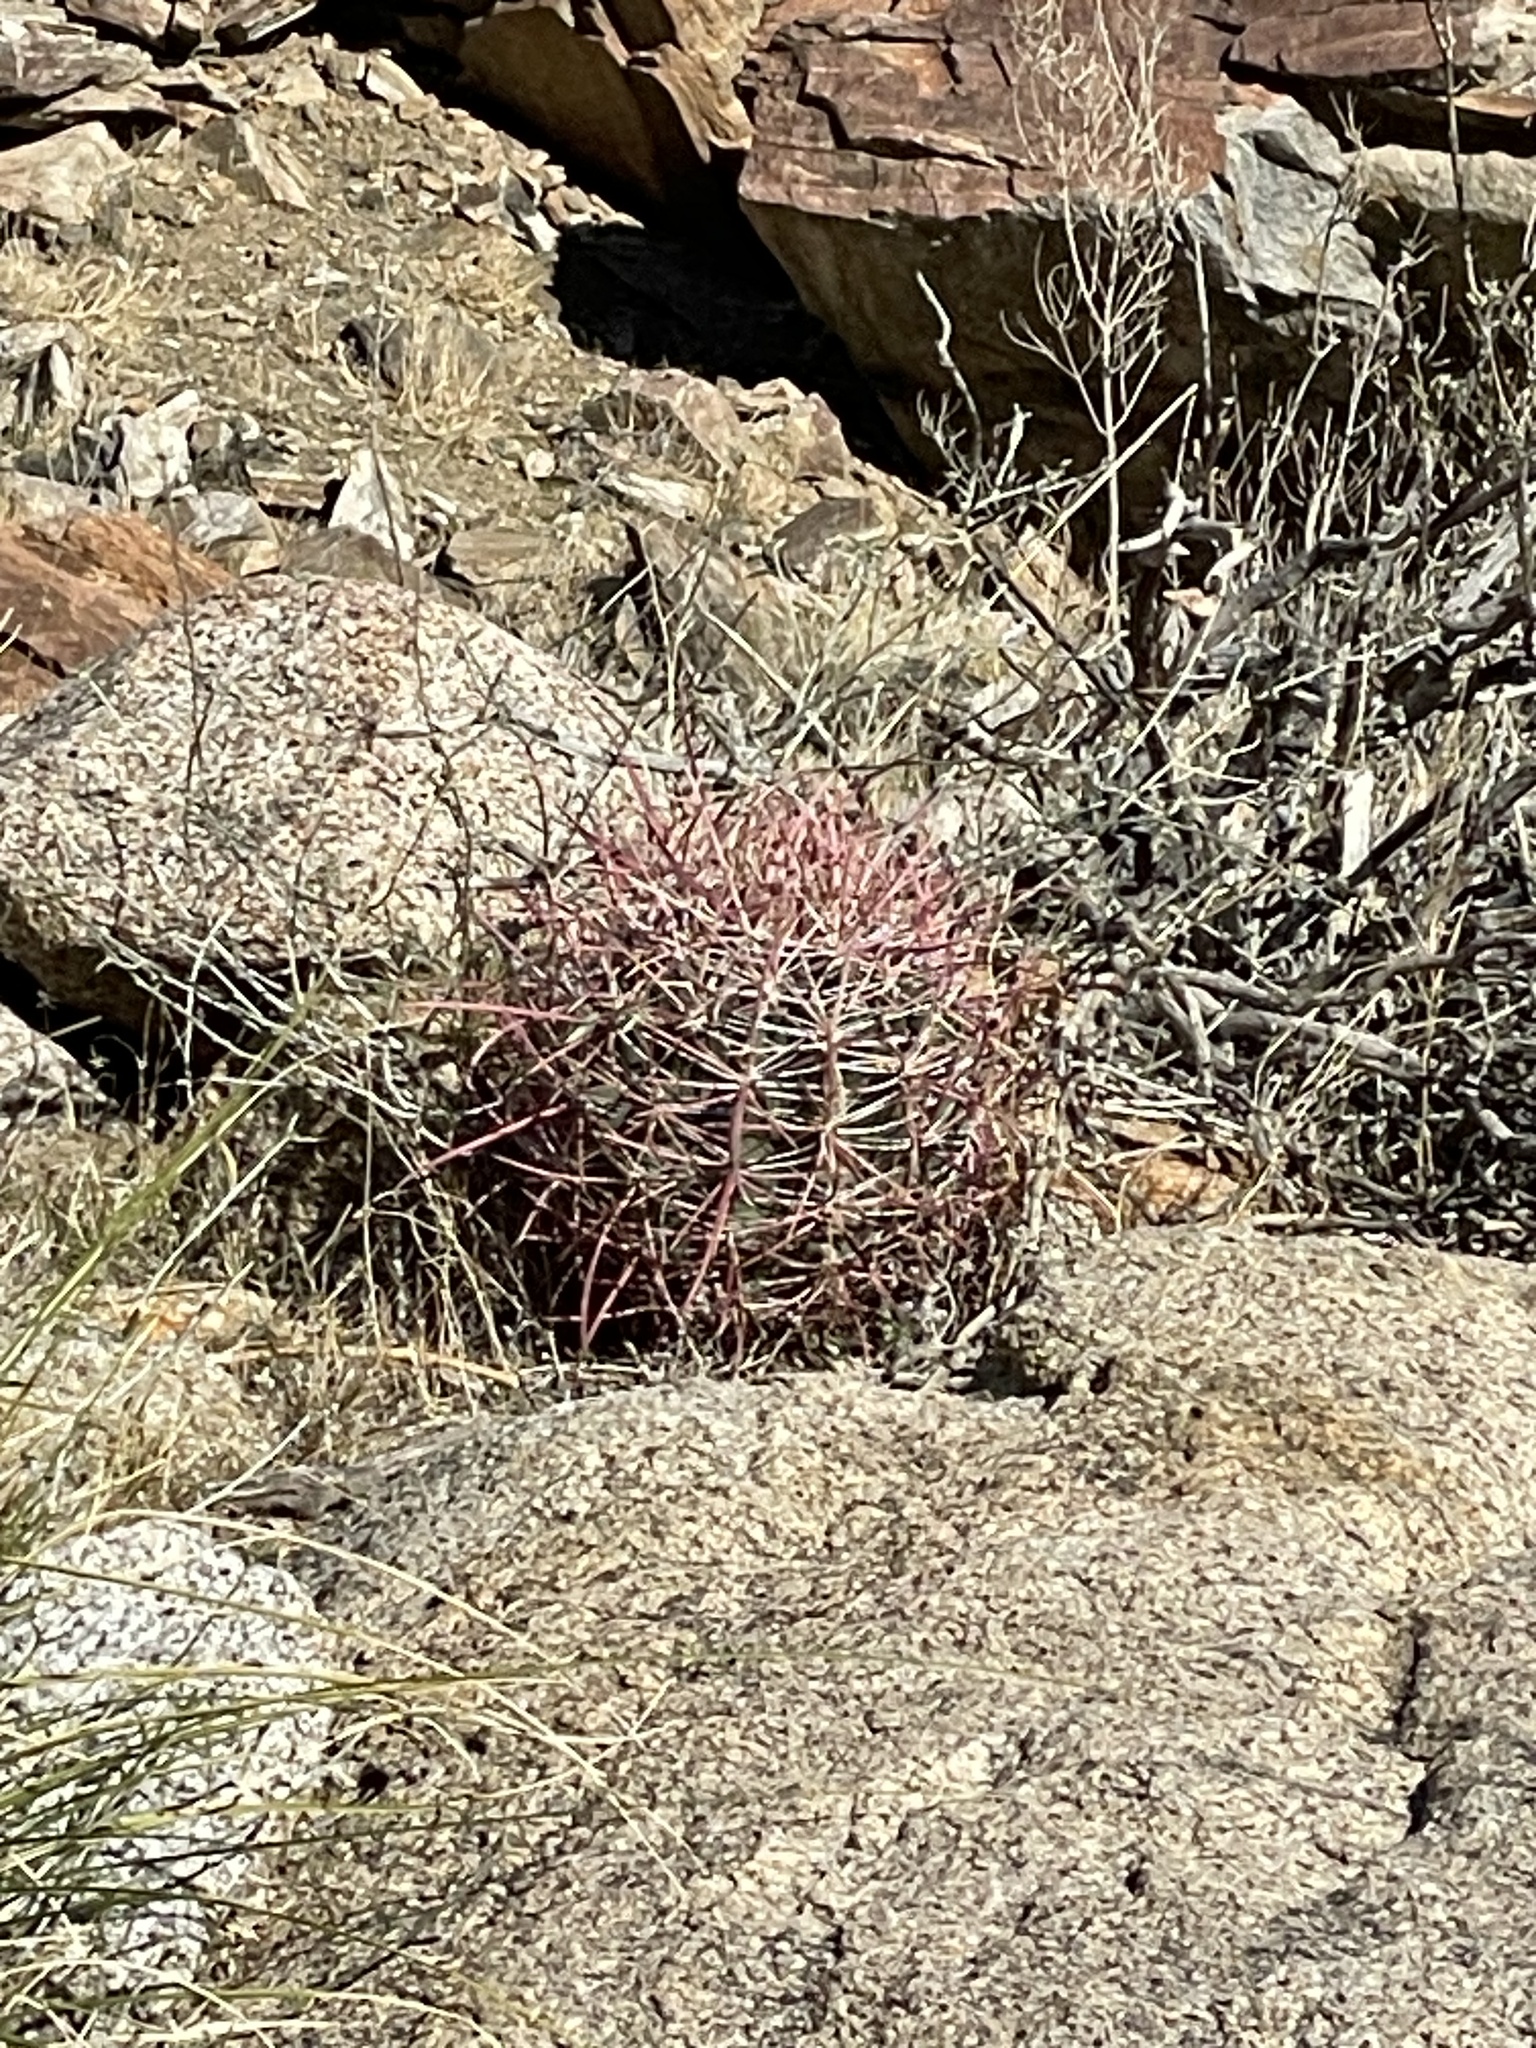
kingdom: Plantae
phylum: Tracheophyta
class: Magnoliopsida
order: Caryophyllales
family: Cactaceae
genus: Ferocactus
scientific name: Ferocactus cylindraceus
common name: California barrel cactus
